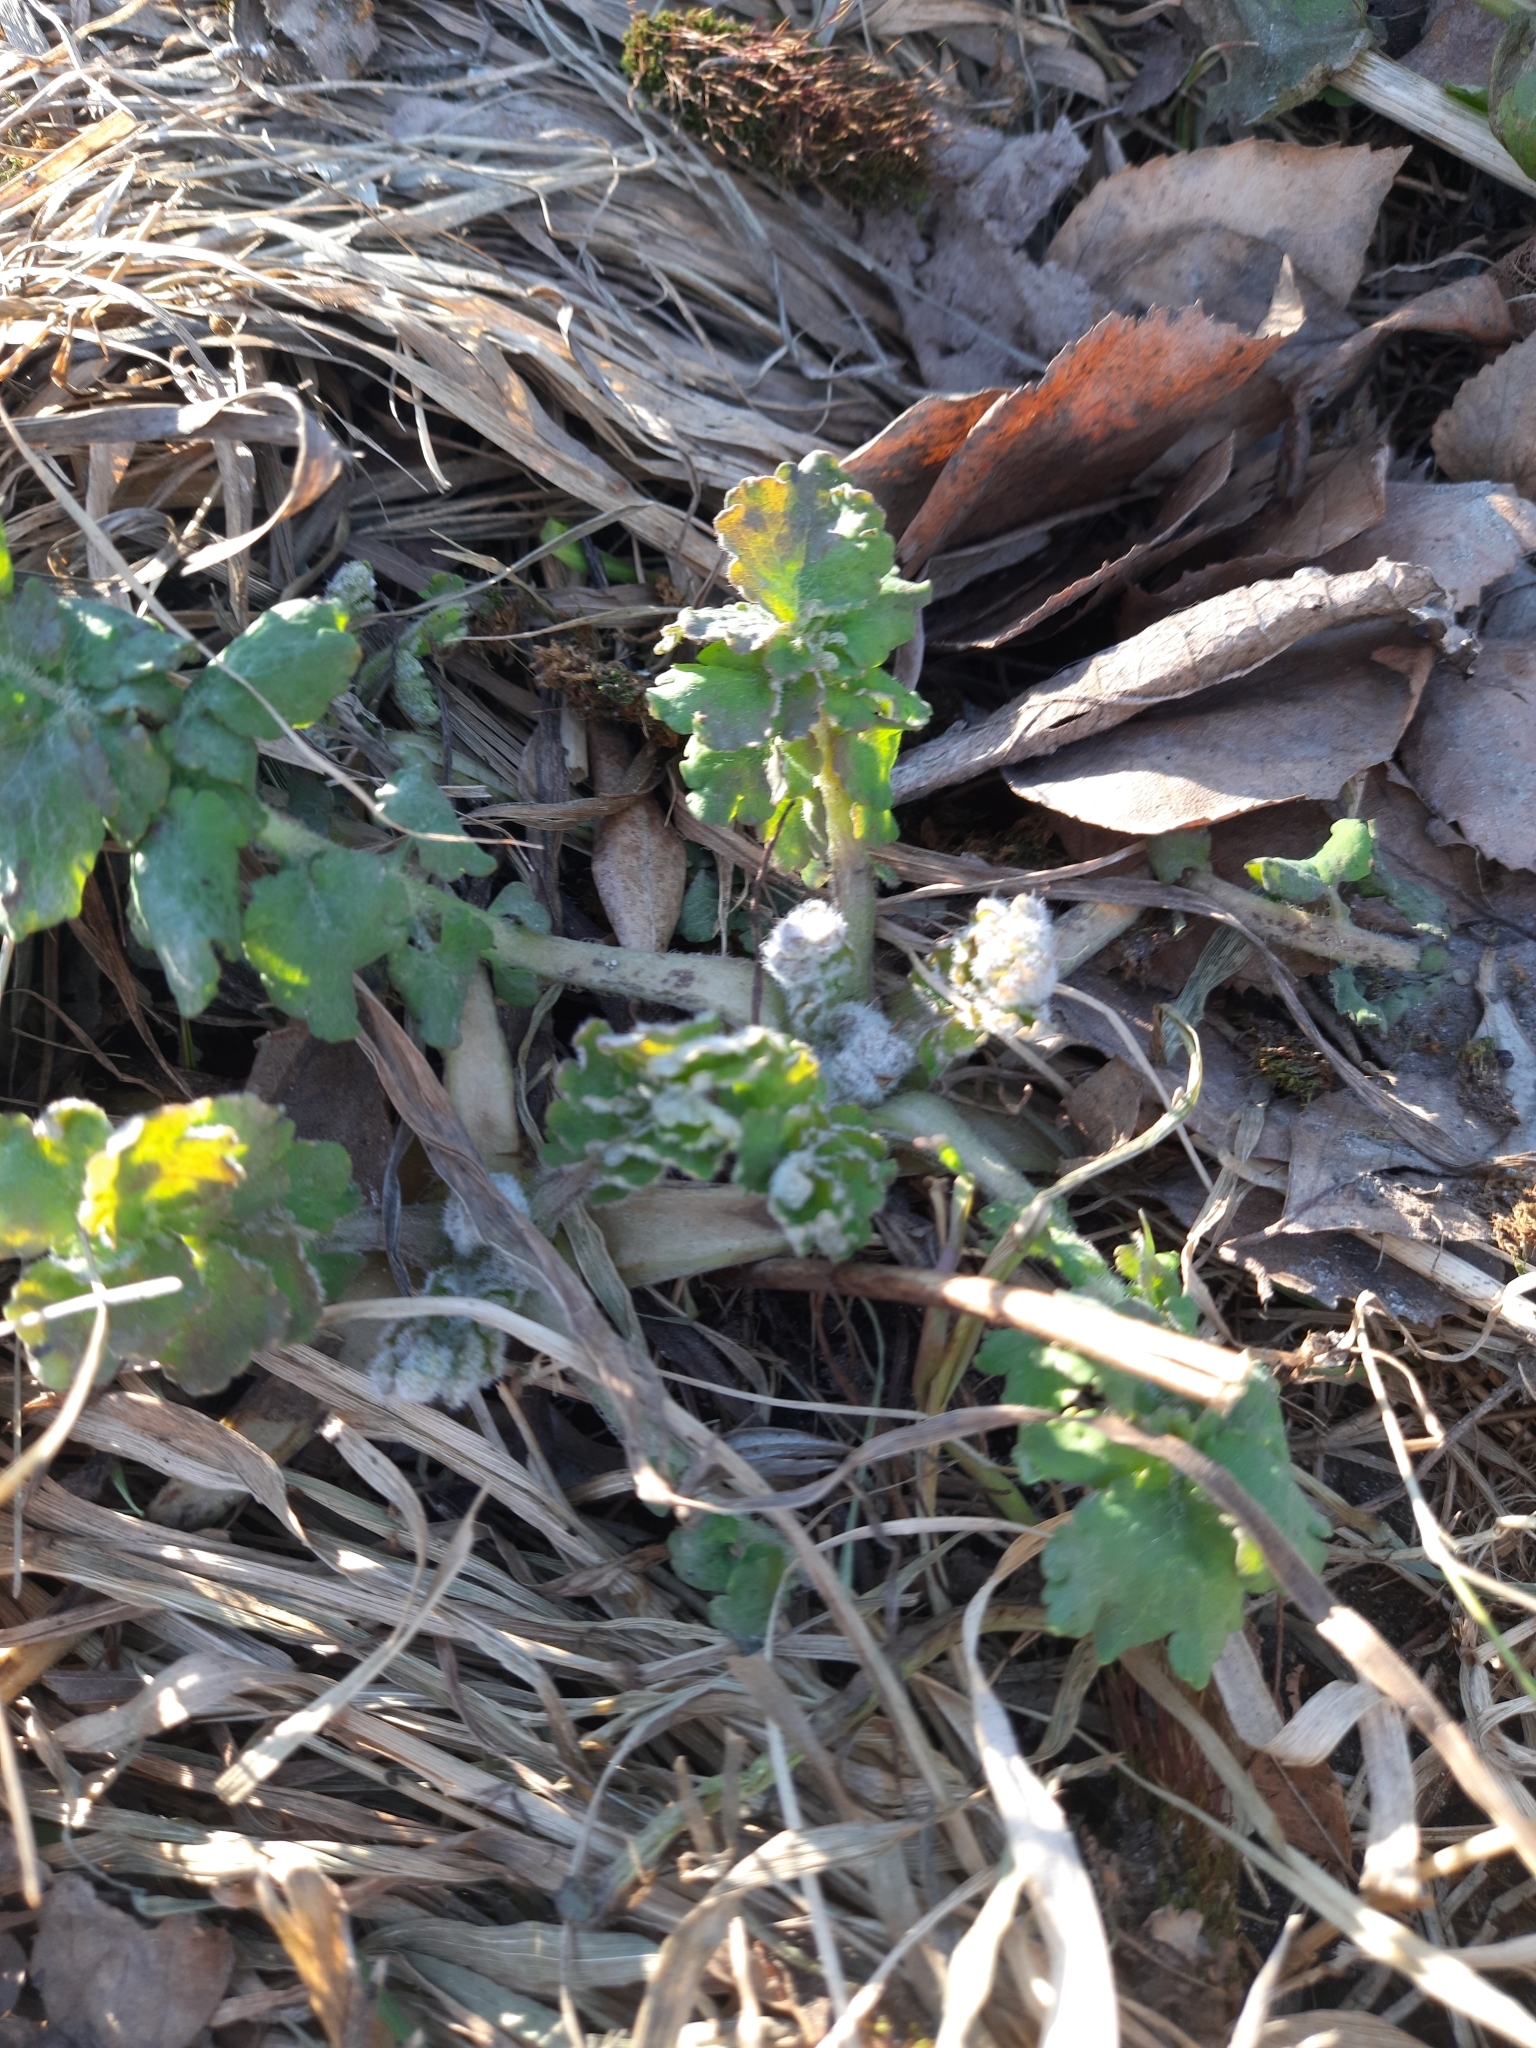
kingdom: Plantae
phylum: Tracheophyta
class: Magnoliopsida
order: Ranunculales
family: Papaveraceae
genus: Chelidonium
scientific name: Chelidonium majus
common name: Greater celandine
